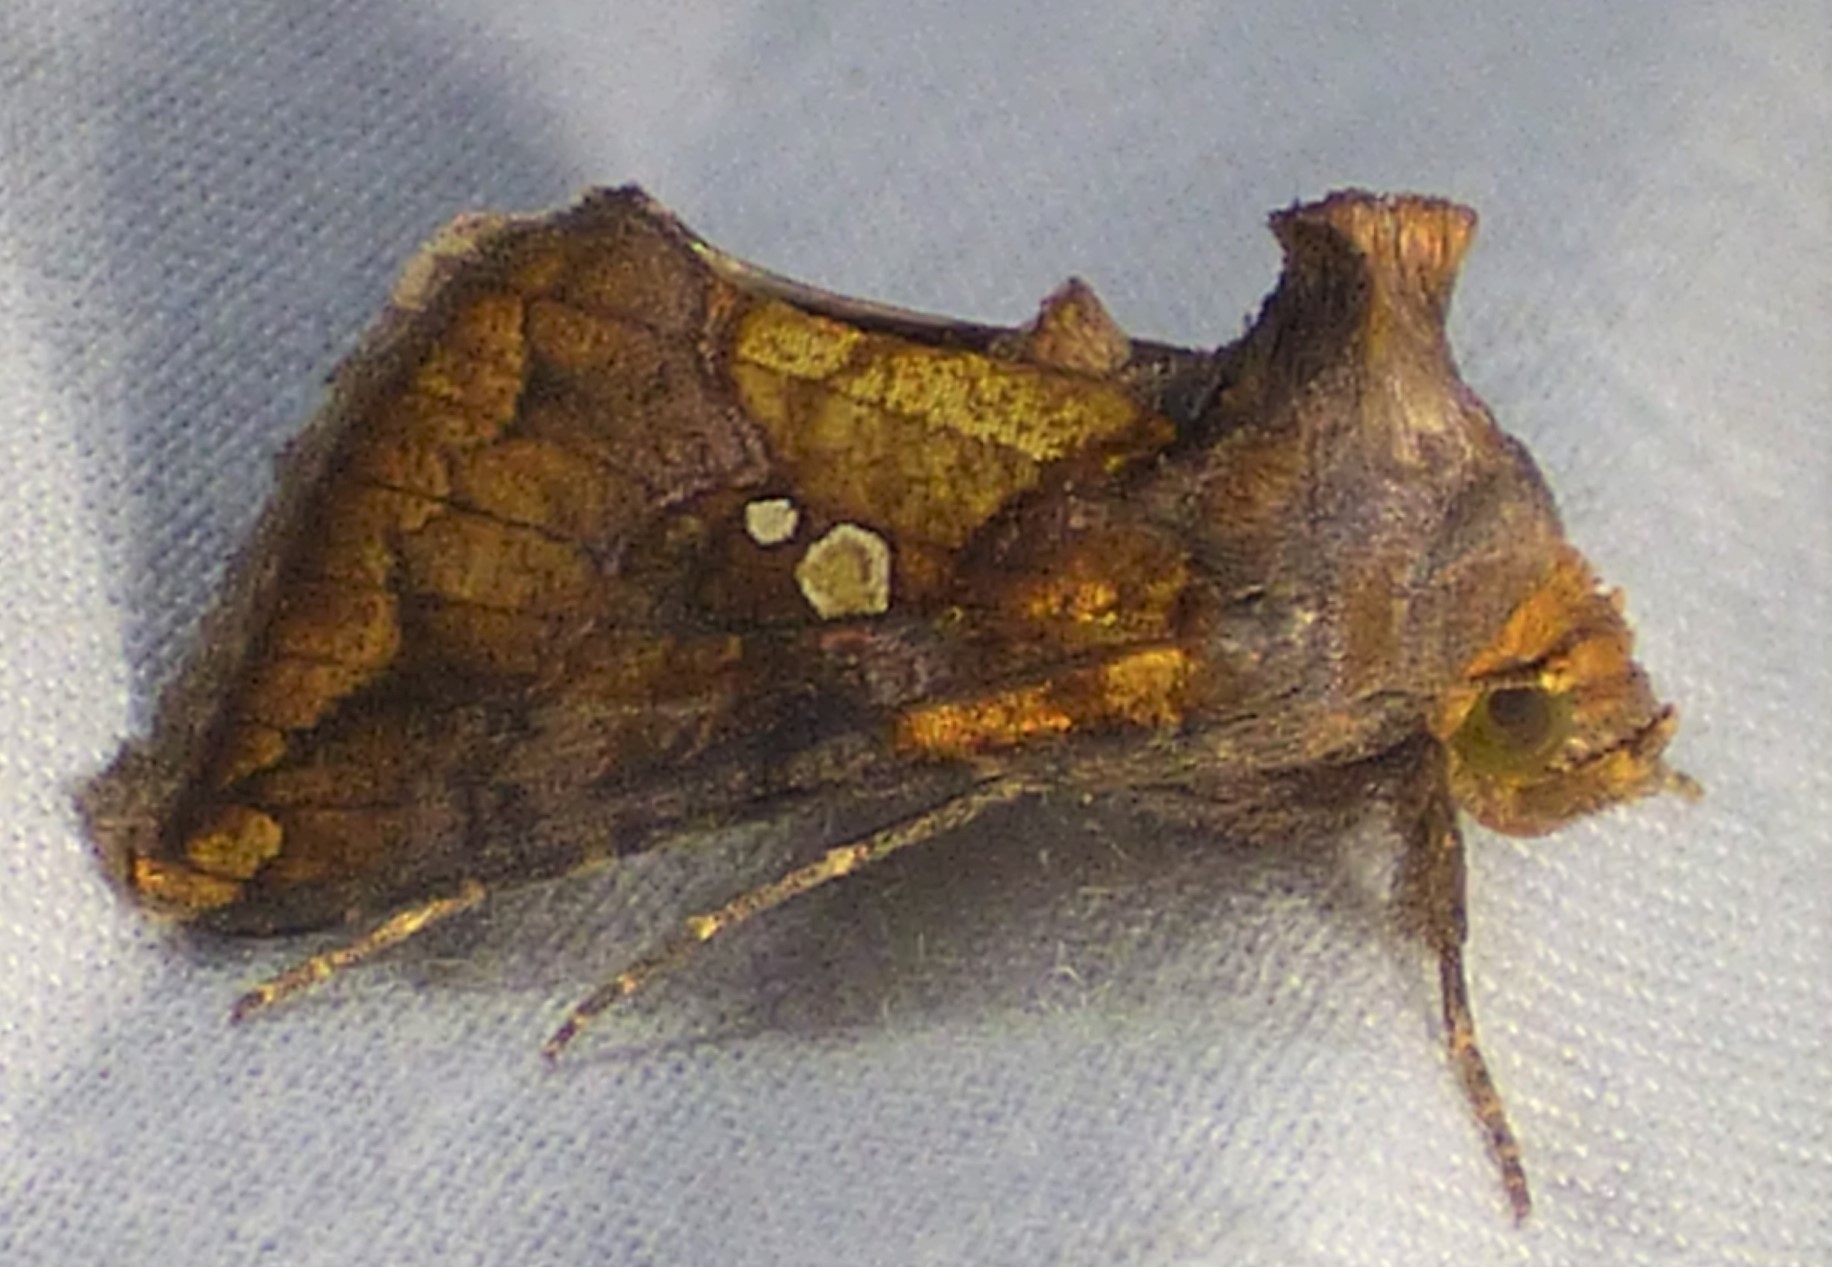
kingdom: Animalia
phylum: Arthropoda
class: Insecta
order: Lepidoptera
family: Noctuidae
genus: Argyrogramma
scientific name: Argyrogramma verruca
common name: Golden looper moth
